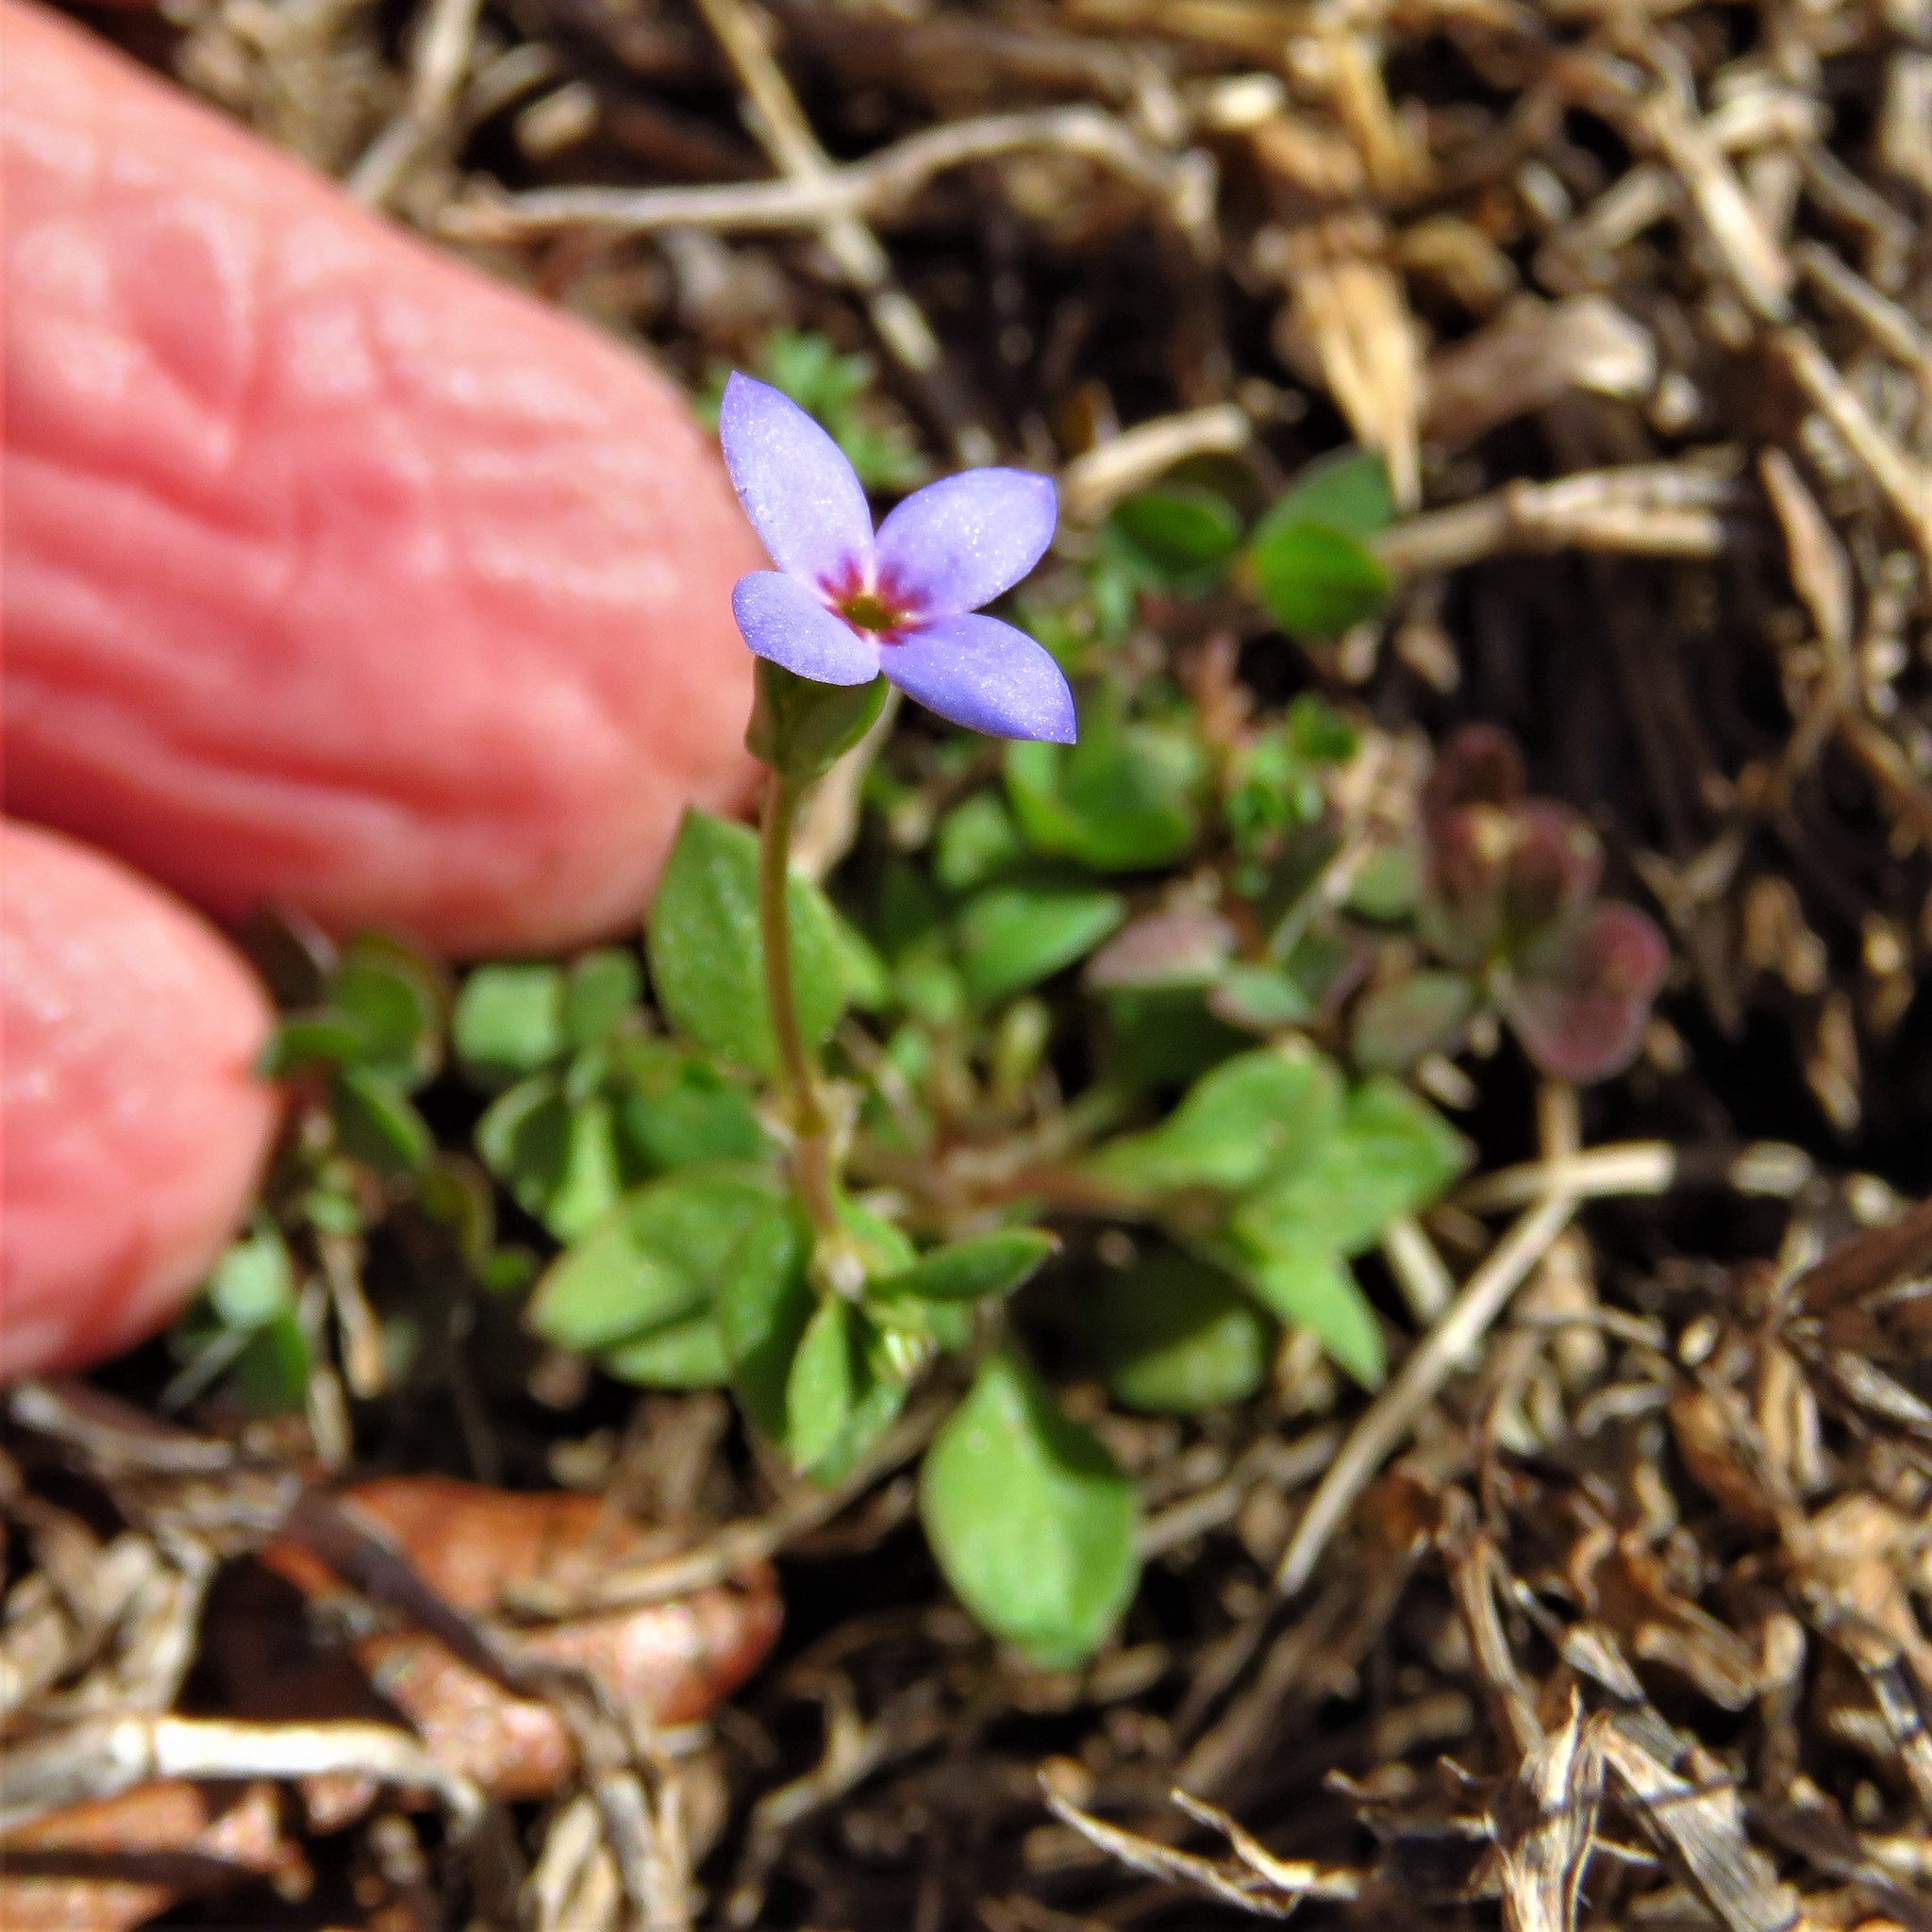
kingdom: Plantae
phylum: Tracheophyta
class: Magnoliopsida
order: Gentianales
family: Rubiaceae
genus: Houstonia
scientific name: Houstonia pusilla
